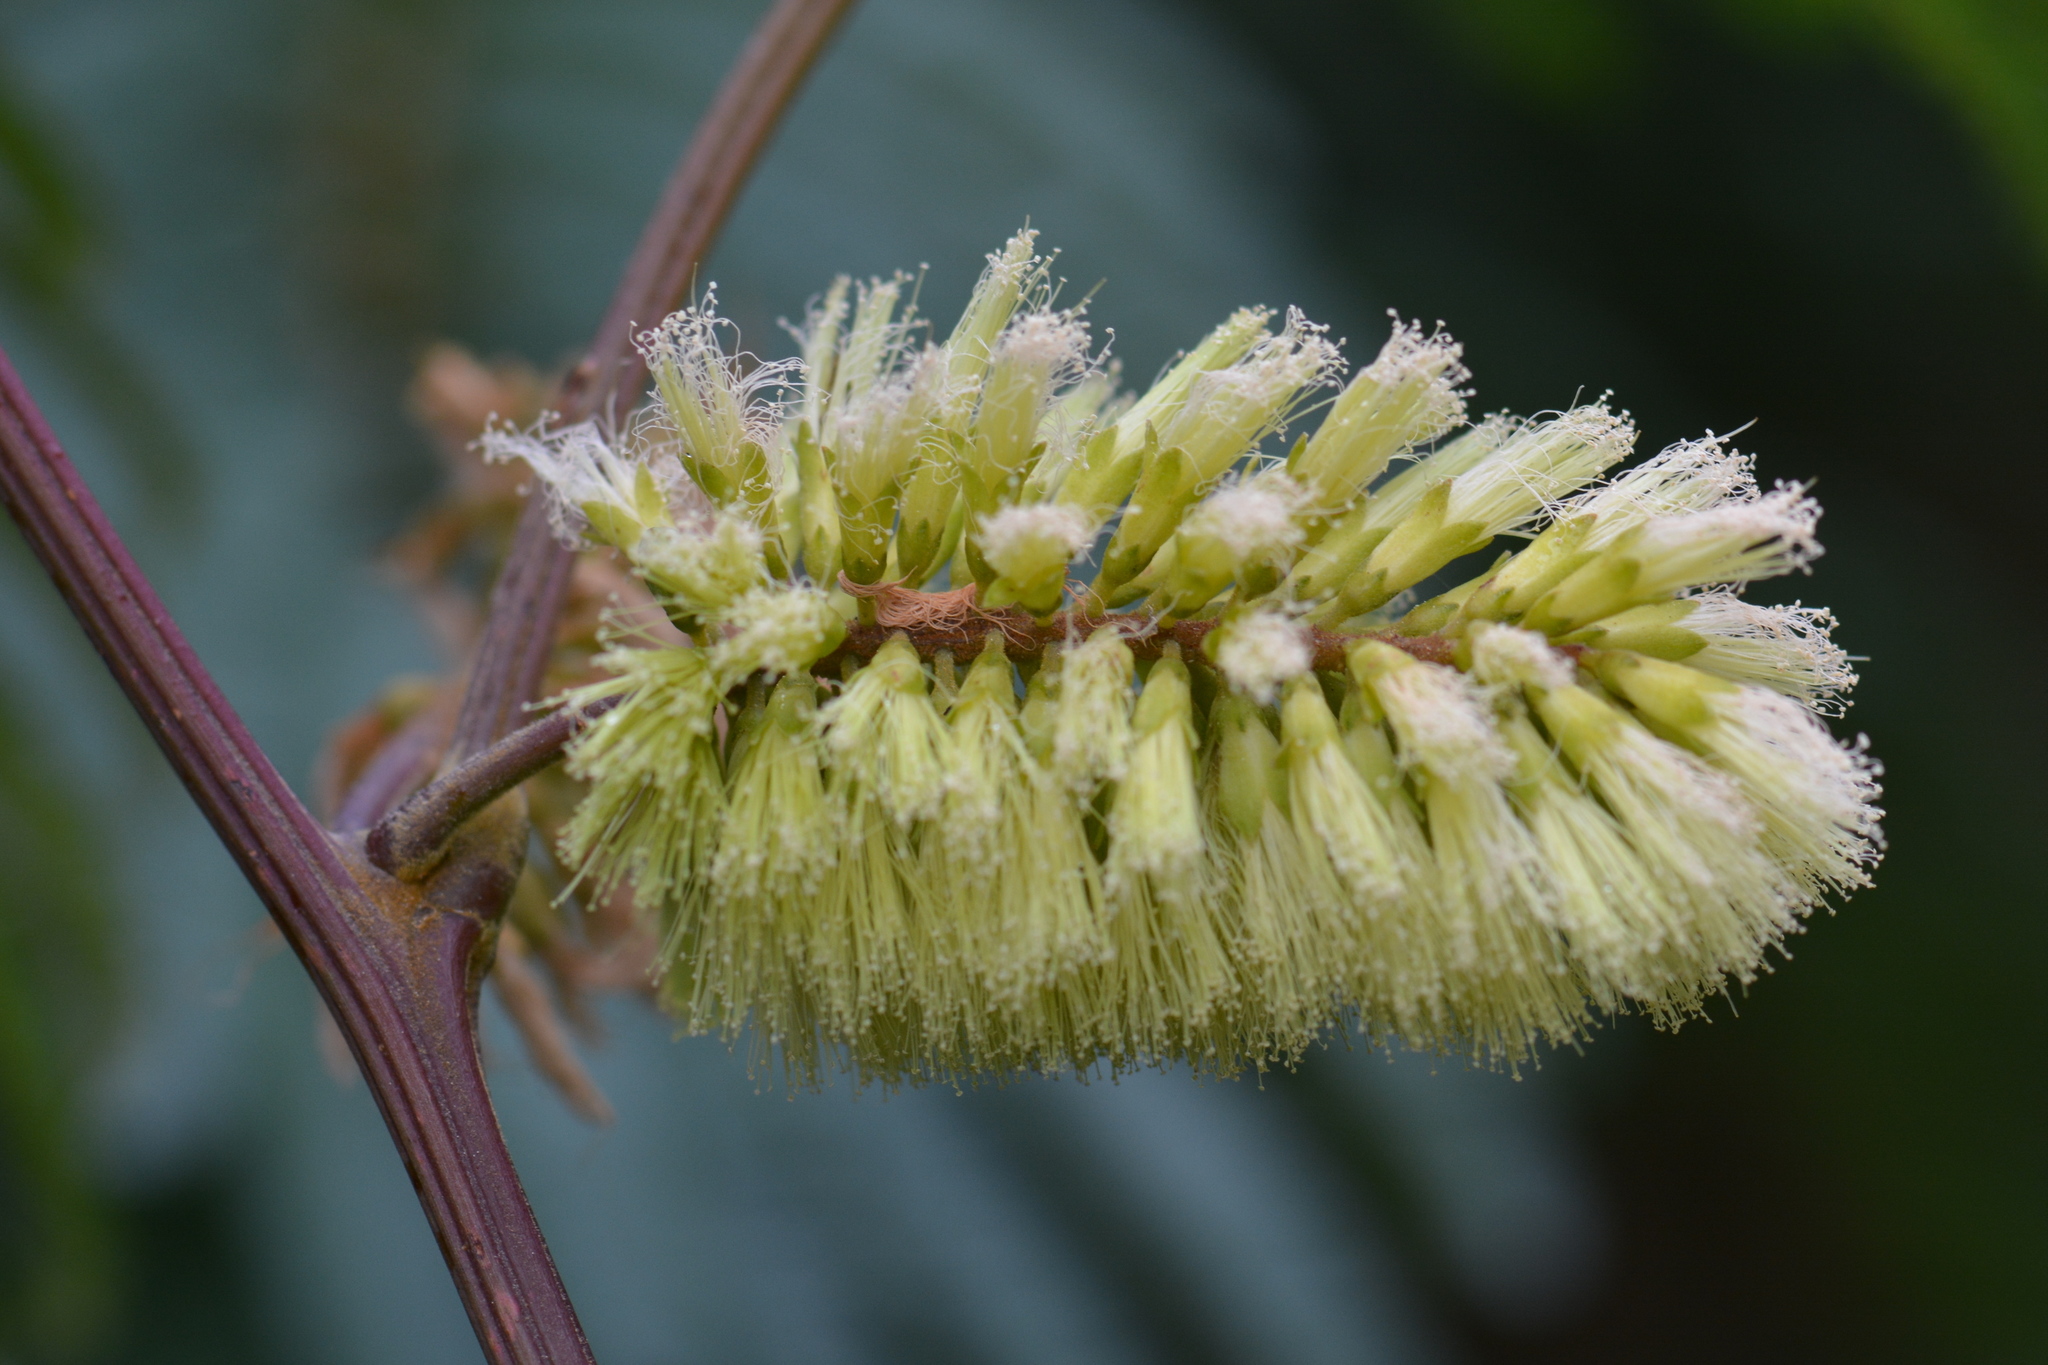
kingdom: Plantae
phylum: Tracheophyta
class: Magnoliopsida
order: Fabales
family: Fabaceae
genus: Paraserianthes
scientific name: Paraserianthes lophantha
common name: Plume albizia
